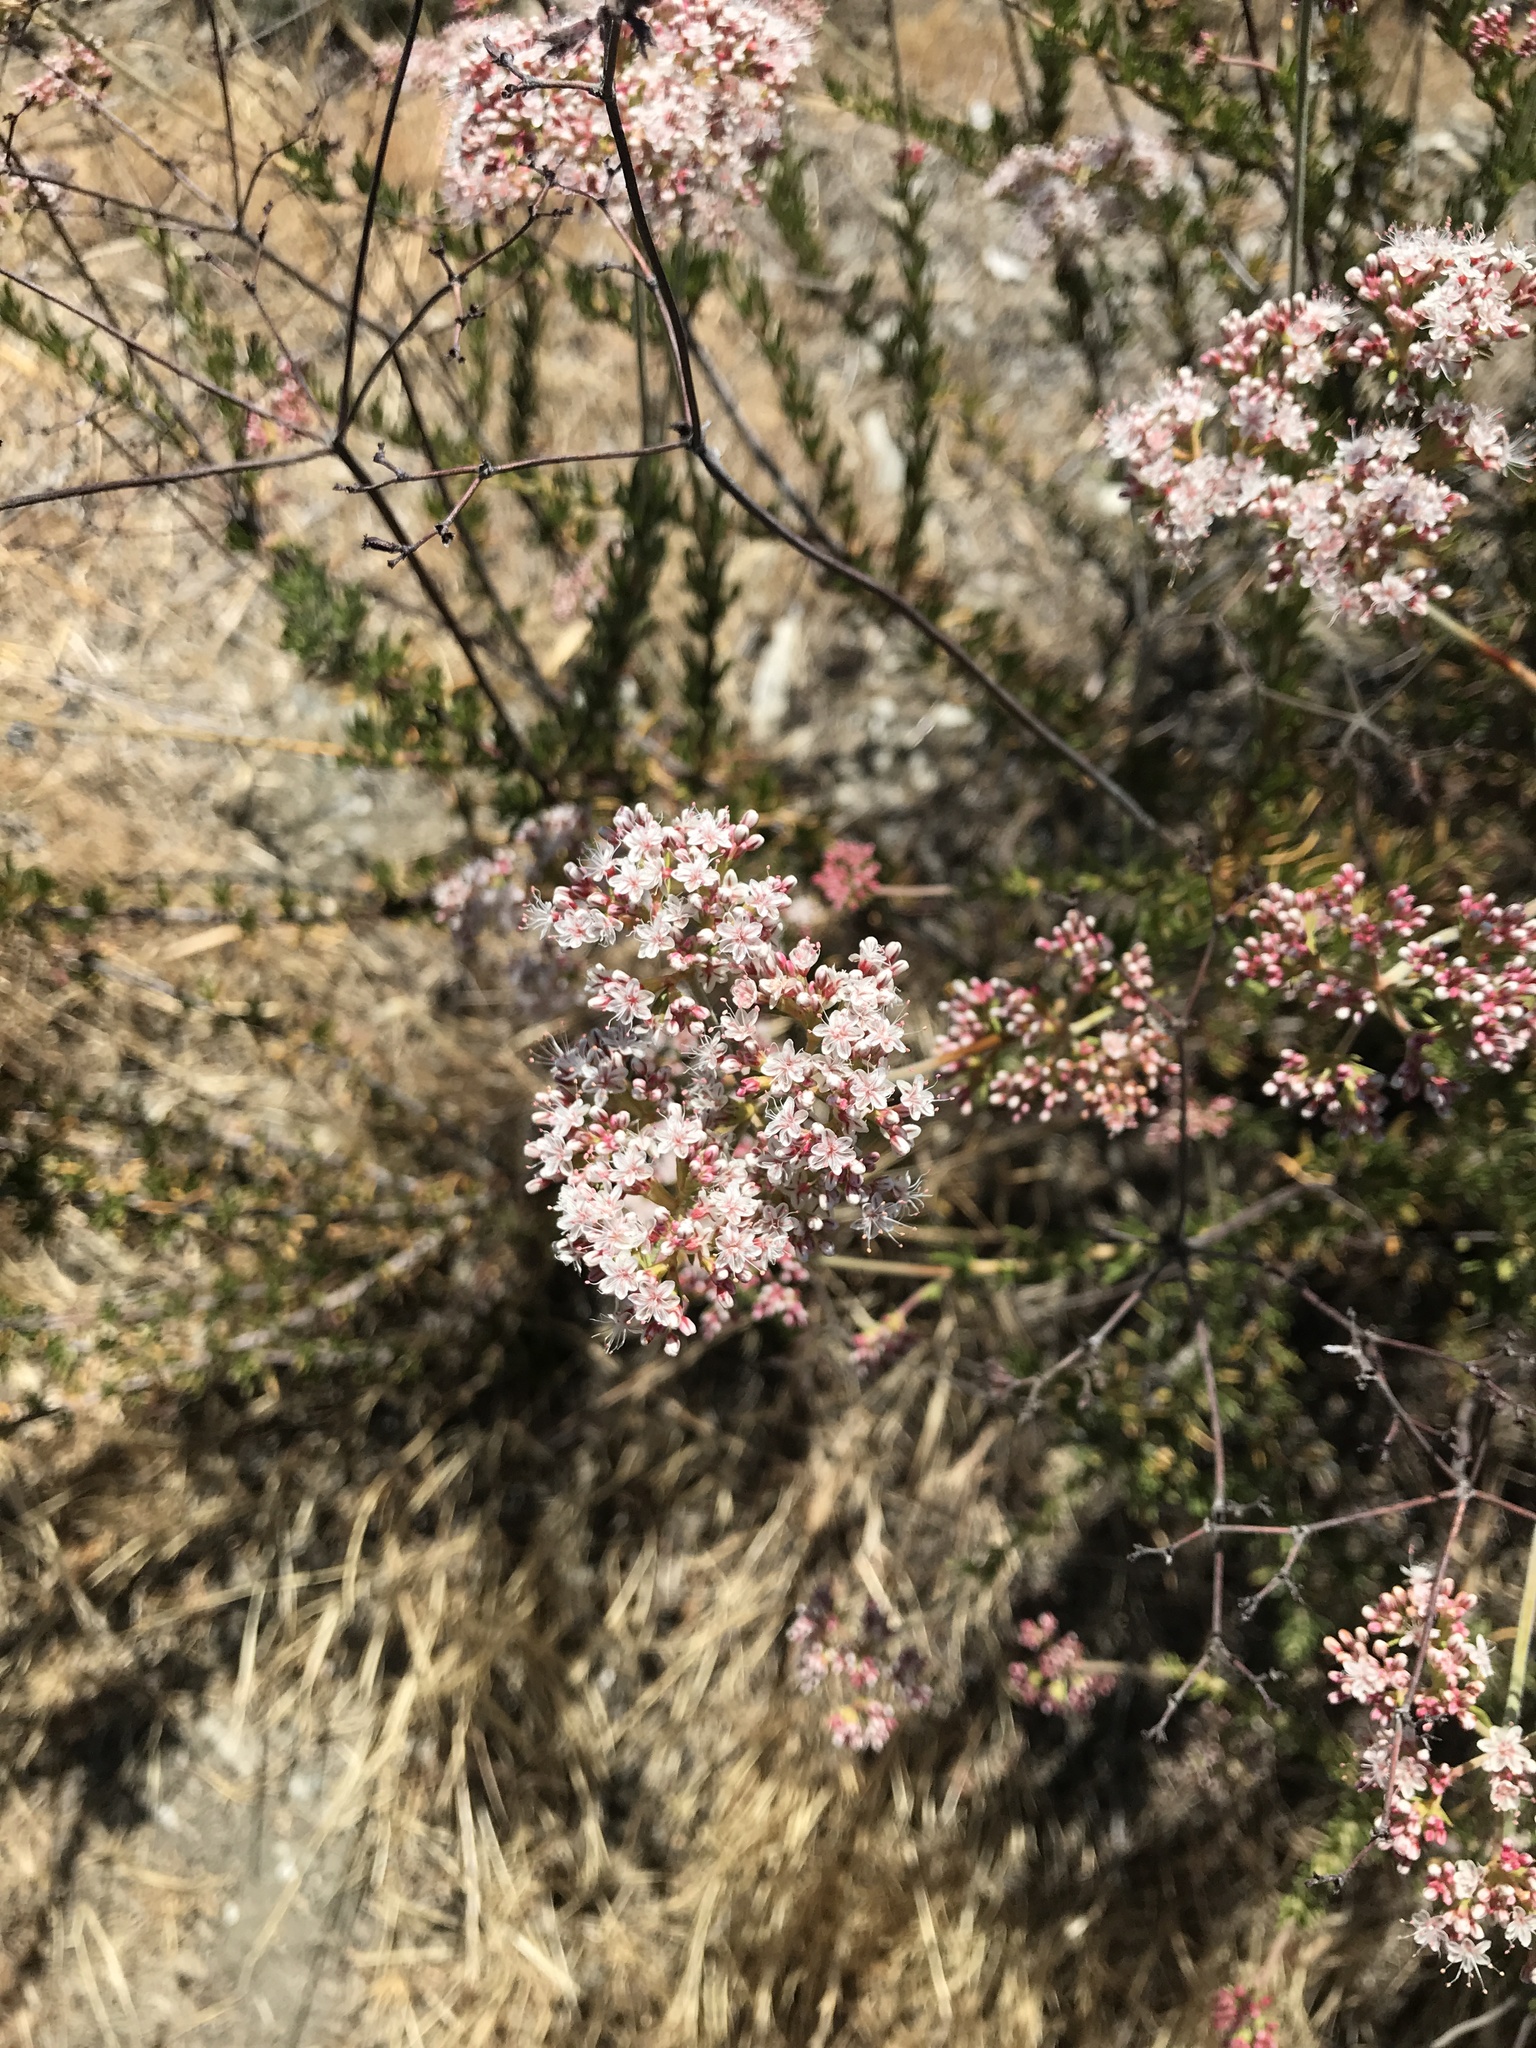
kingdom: Plantae
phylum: Tracheophyta
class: Magnoliopsida
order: Caryophyllales
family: Polygonaceae
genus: Eriogonum
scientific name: Eriogonum fasciculatum
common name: California wild buckwheat
